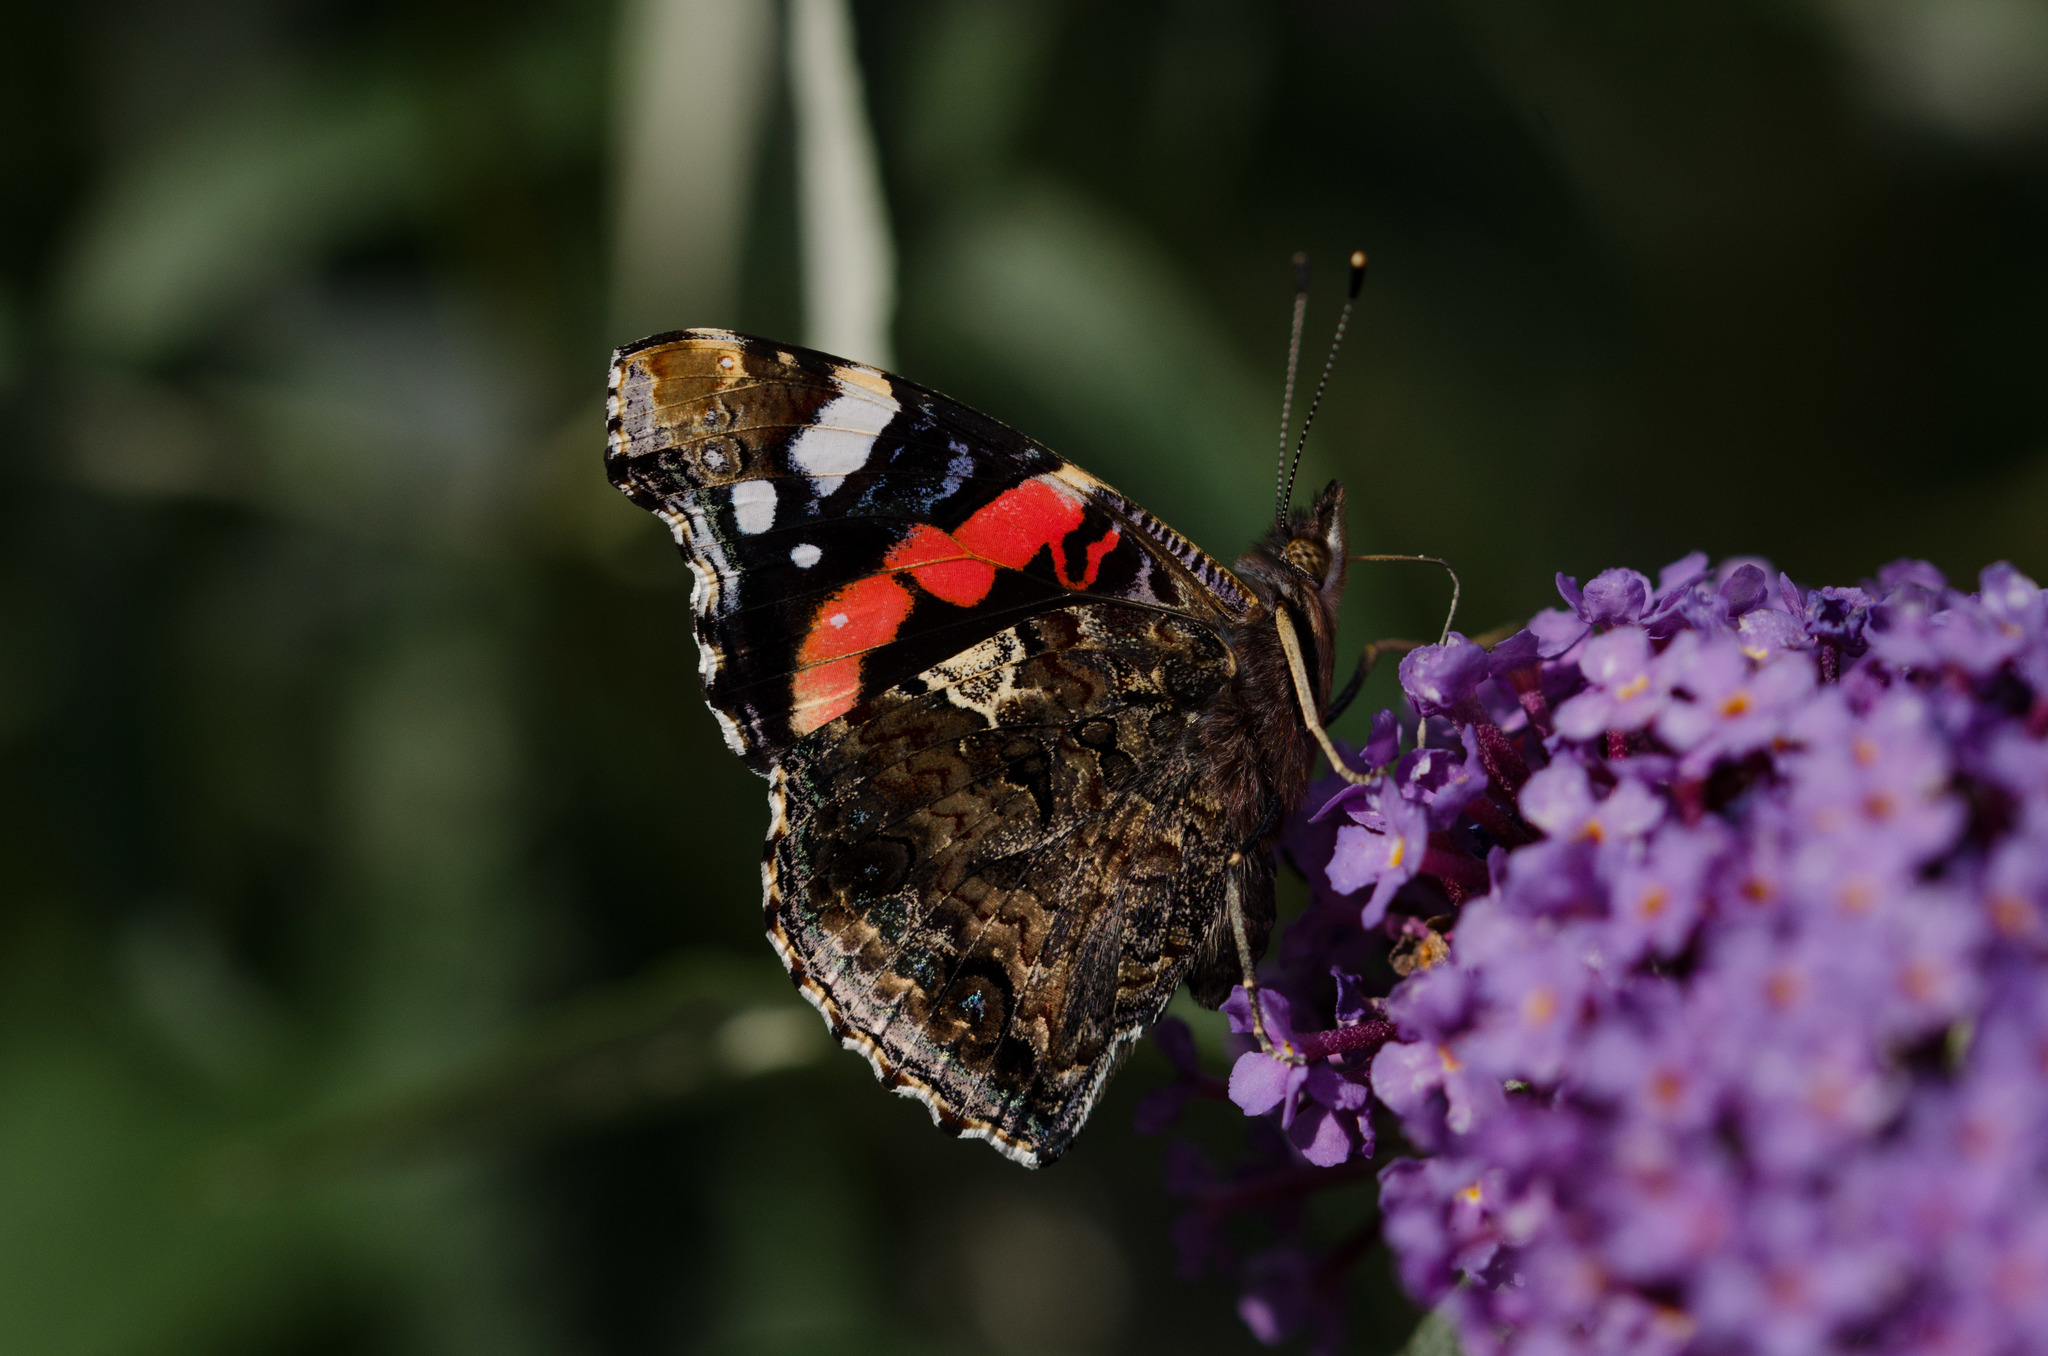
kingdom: Animalia
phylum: Arthropoda
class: Insecta
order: Lepidoptera
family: Nymphalidae
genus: Vanessa
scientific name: Vanessa atalanta
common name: Red admiral
